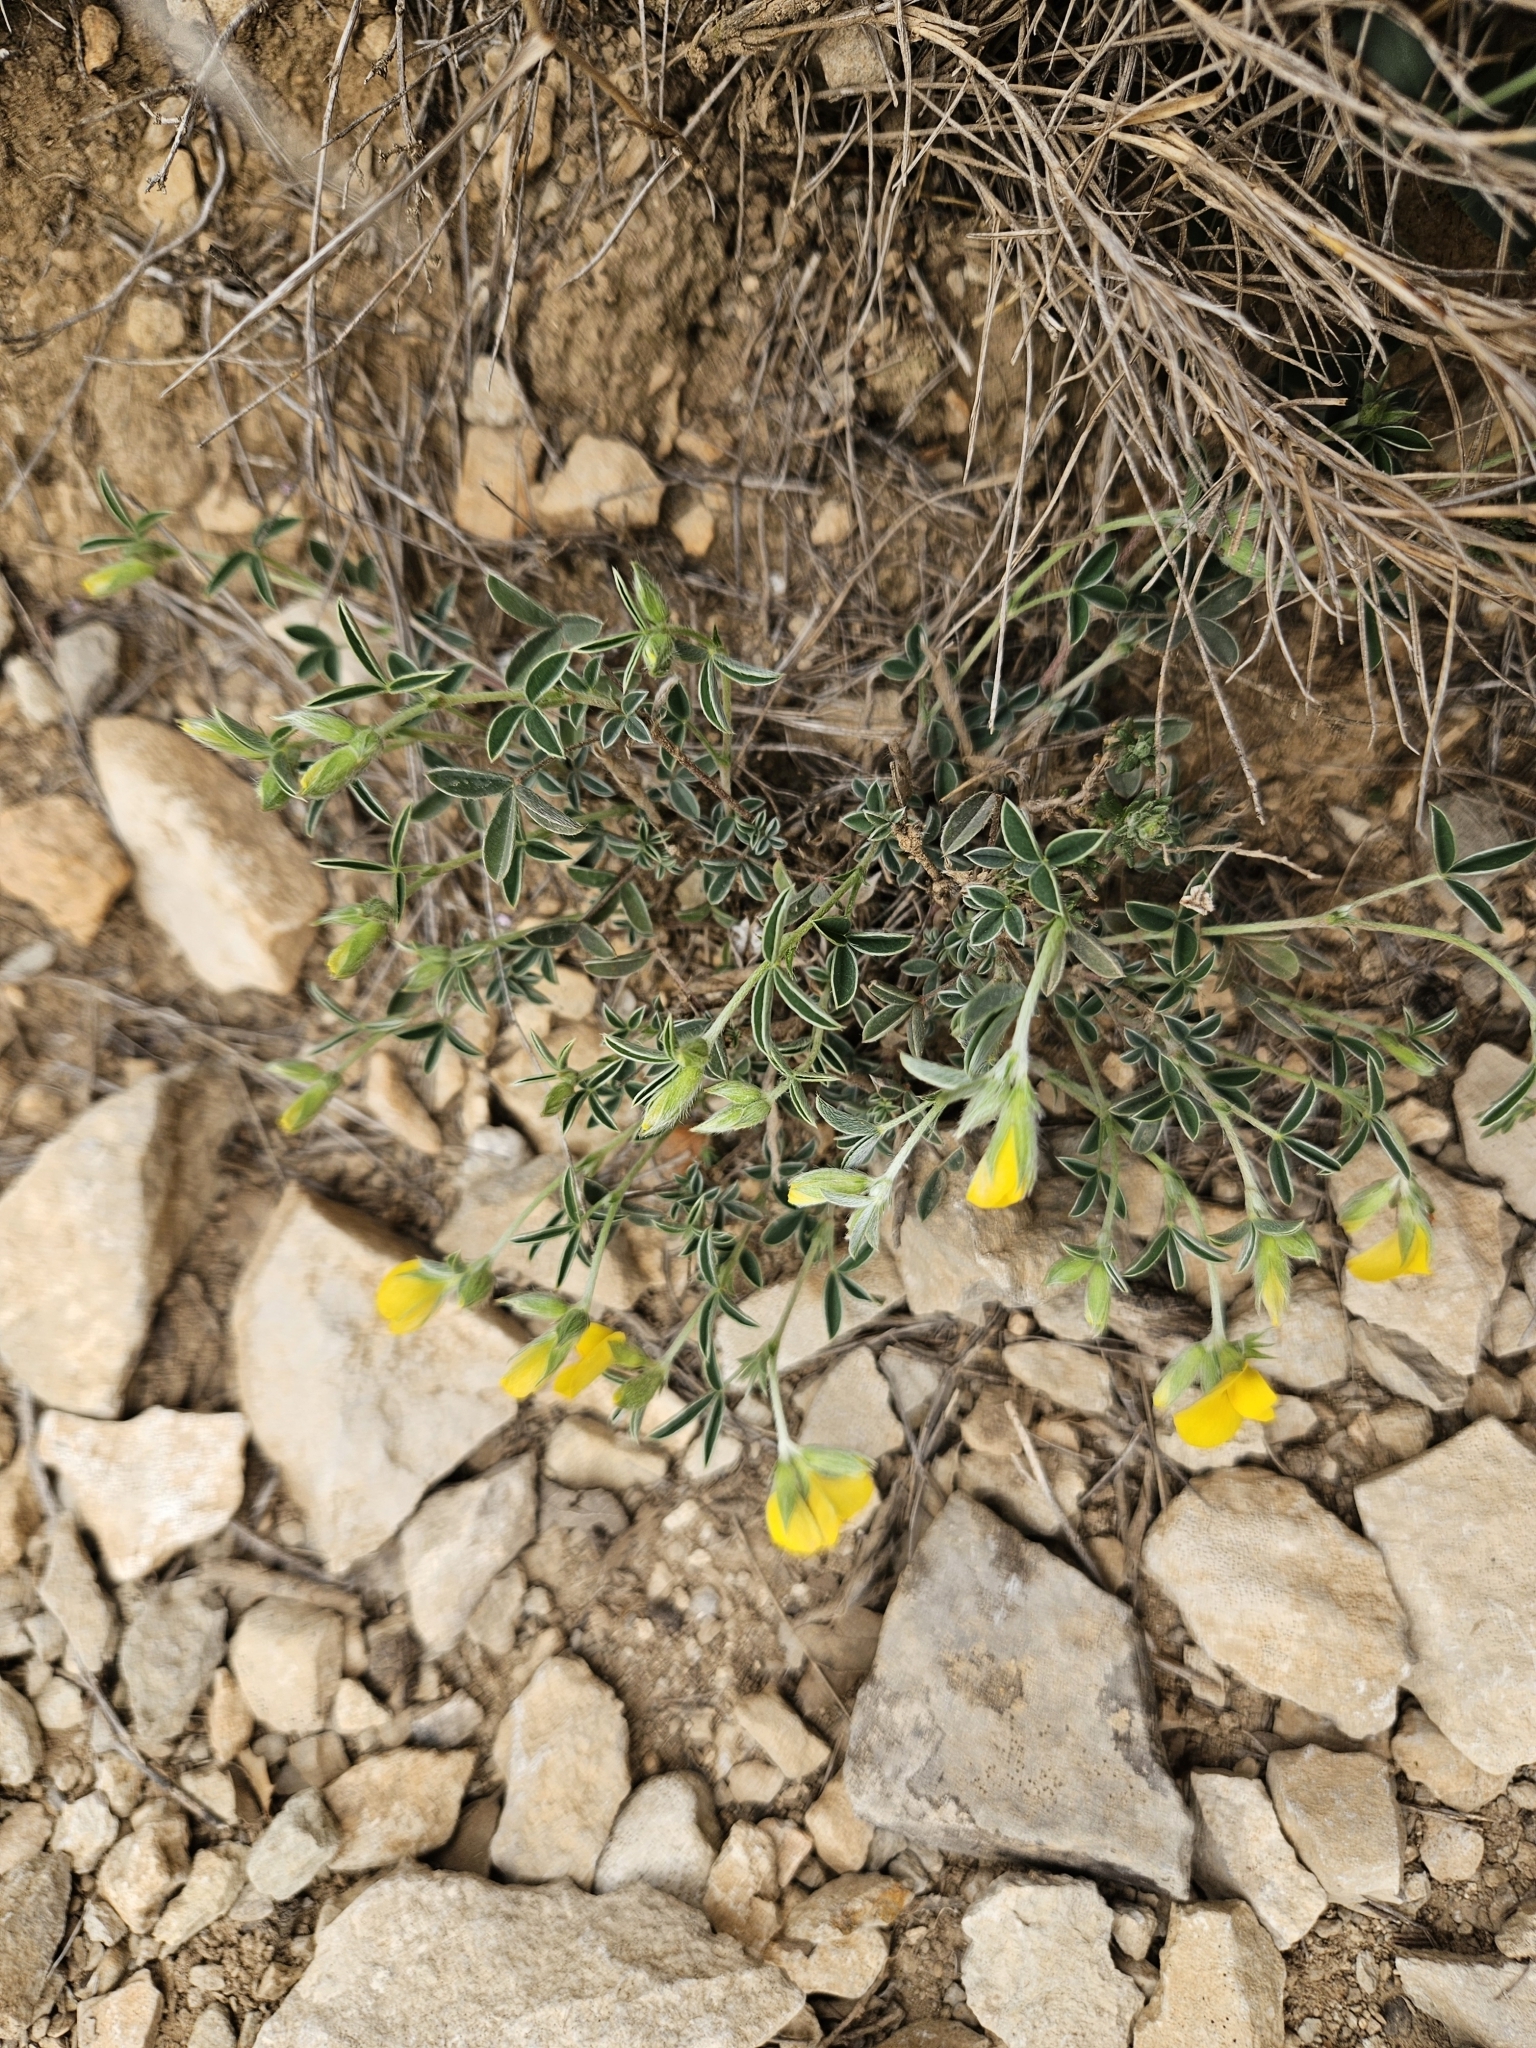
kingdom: Plantae
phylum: Tracheophyta
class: Magnoliopsida
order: Fabales
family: Fabaceae
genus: Argyrolobium
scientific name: Argyrolobium zanonii
